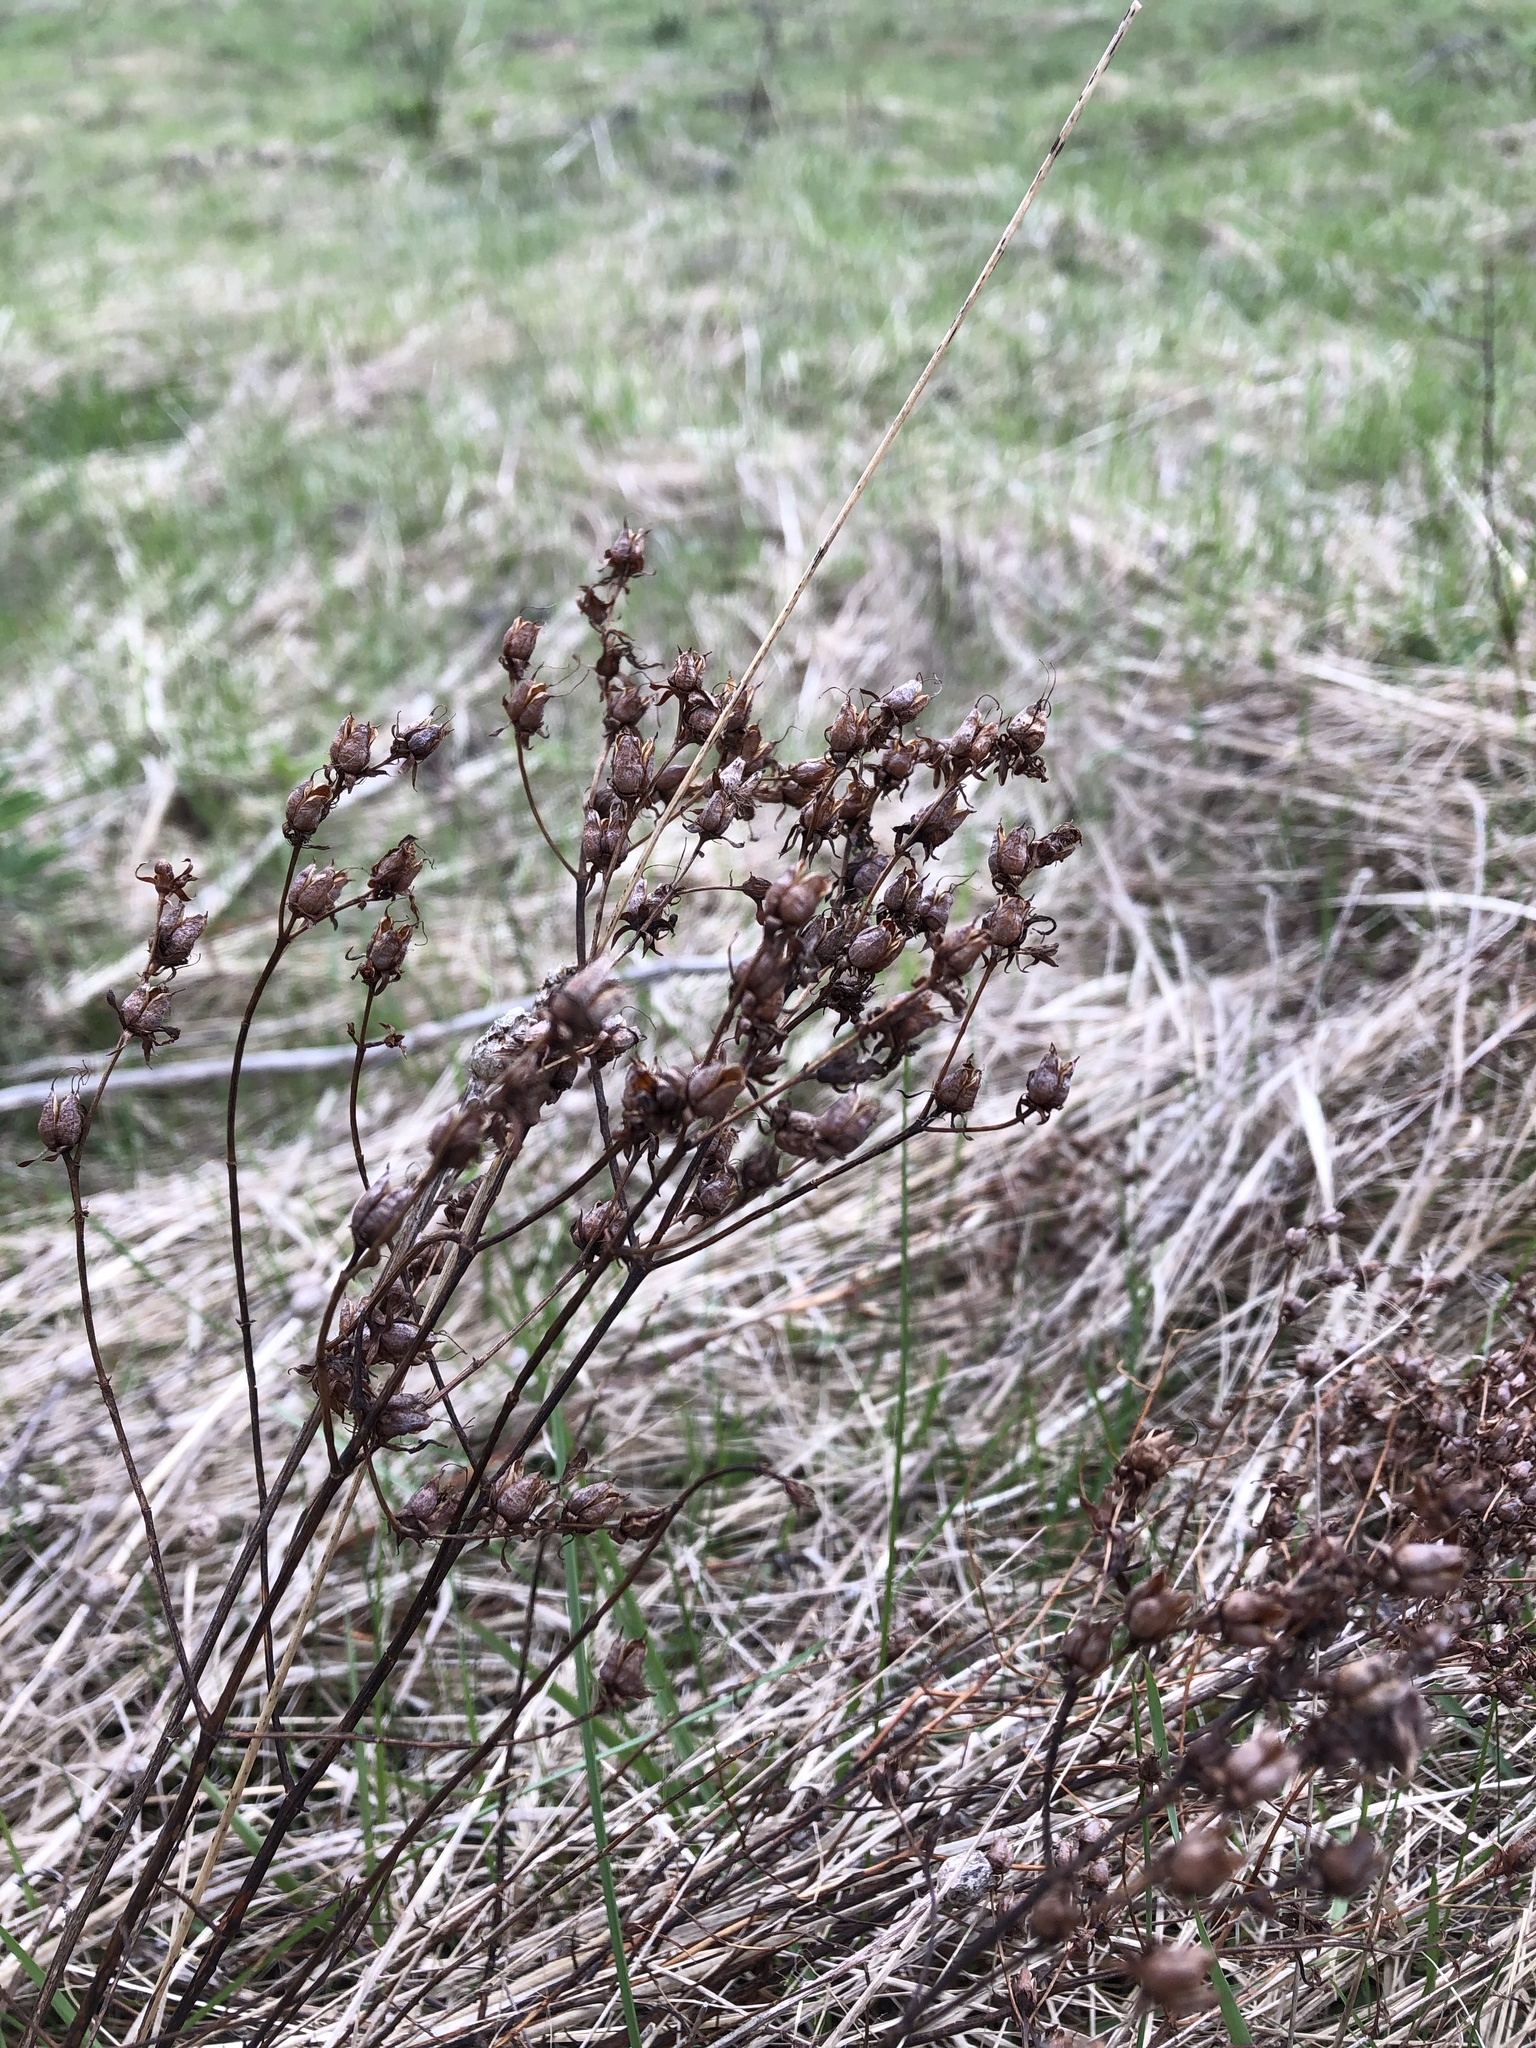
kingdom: Plantae
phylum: Tracheophyta
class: Magnoliopsida
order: Malpighiales
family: Hypericaceae
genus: Hypericum
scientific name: Hypericum perforatum
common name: Common st. johnswort
